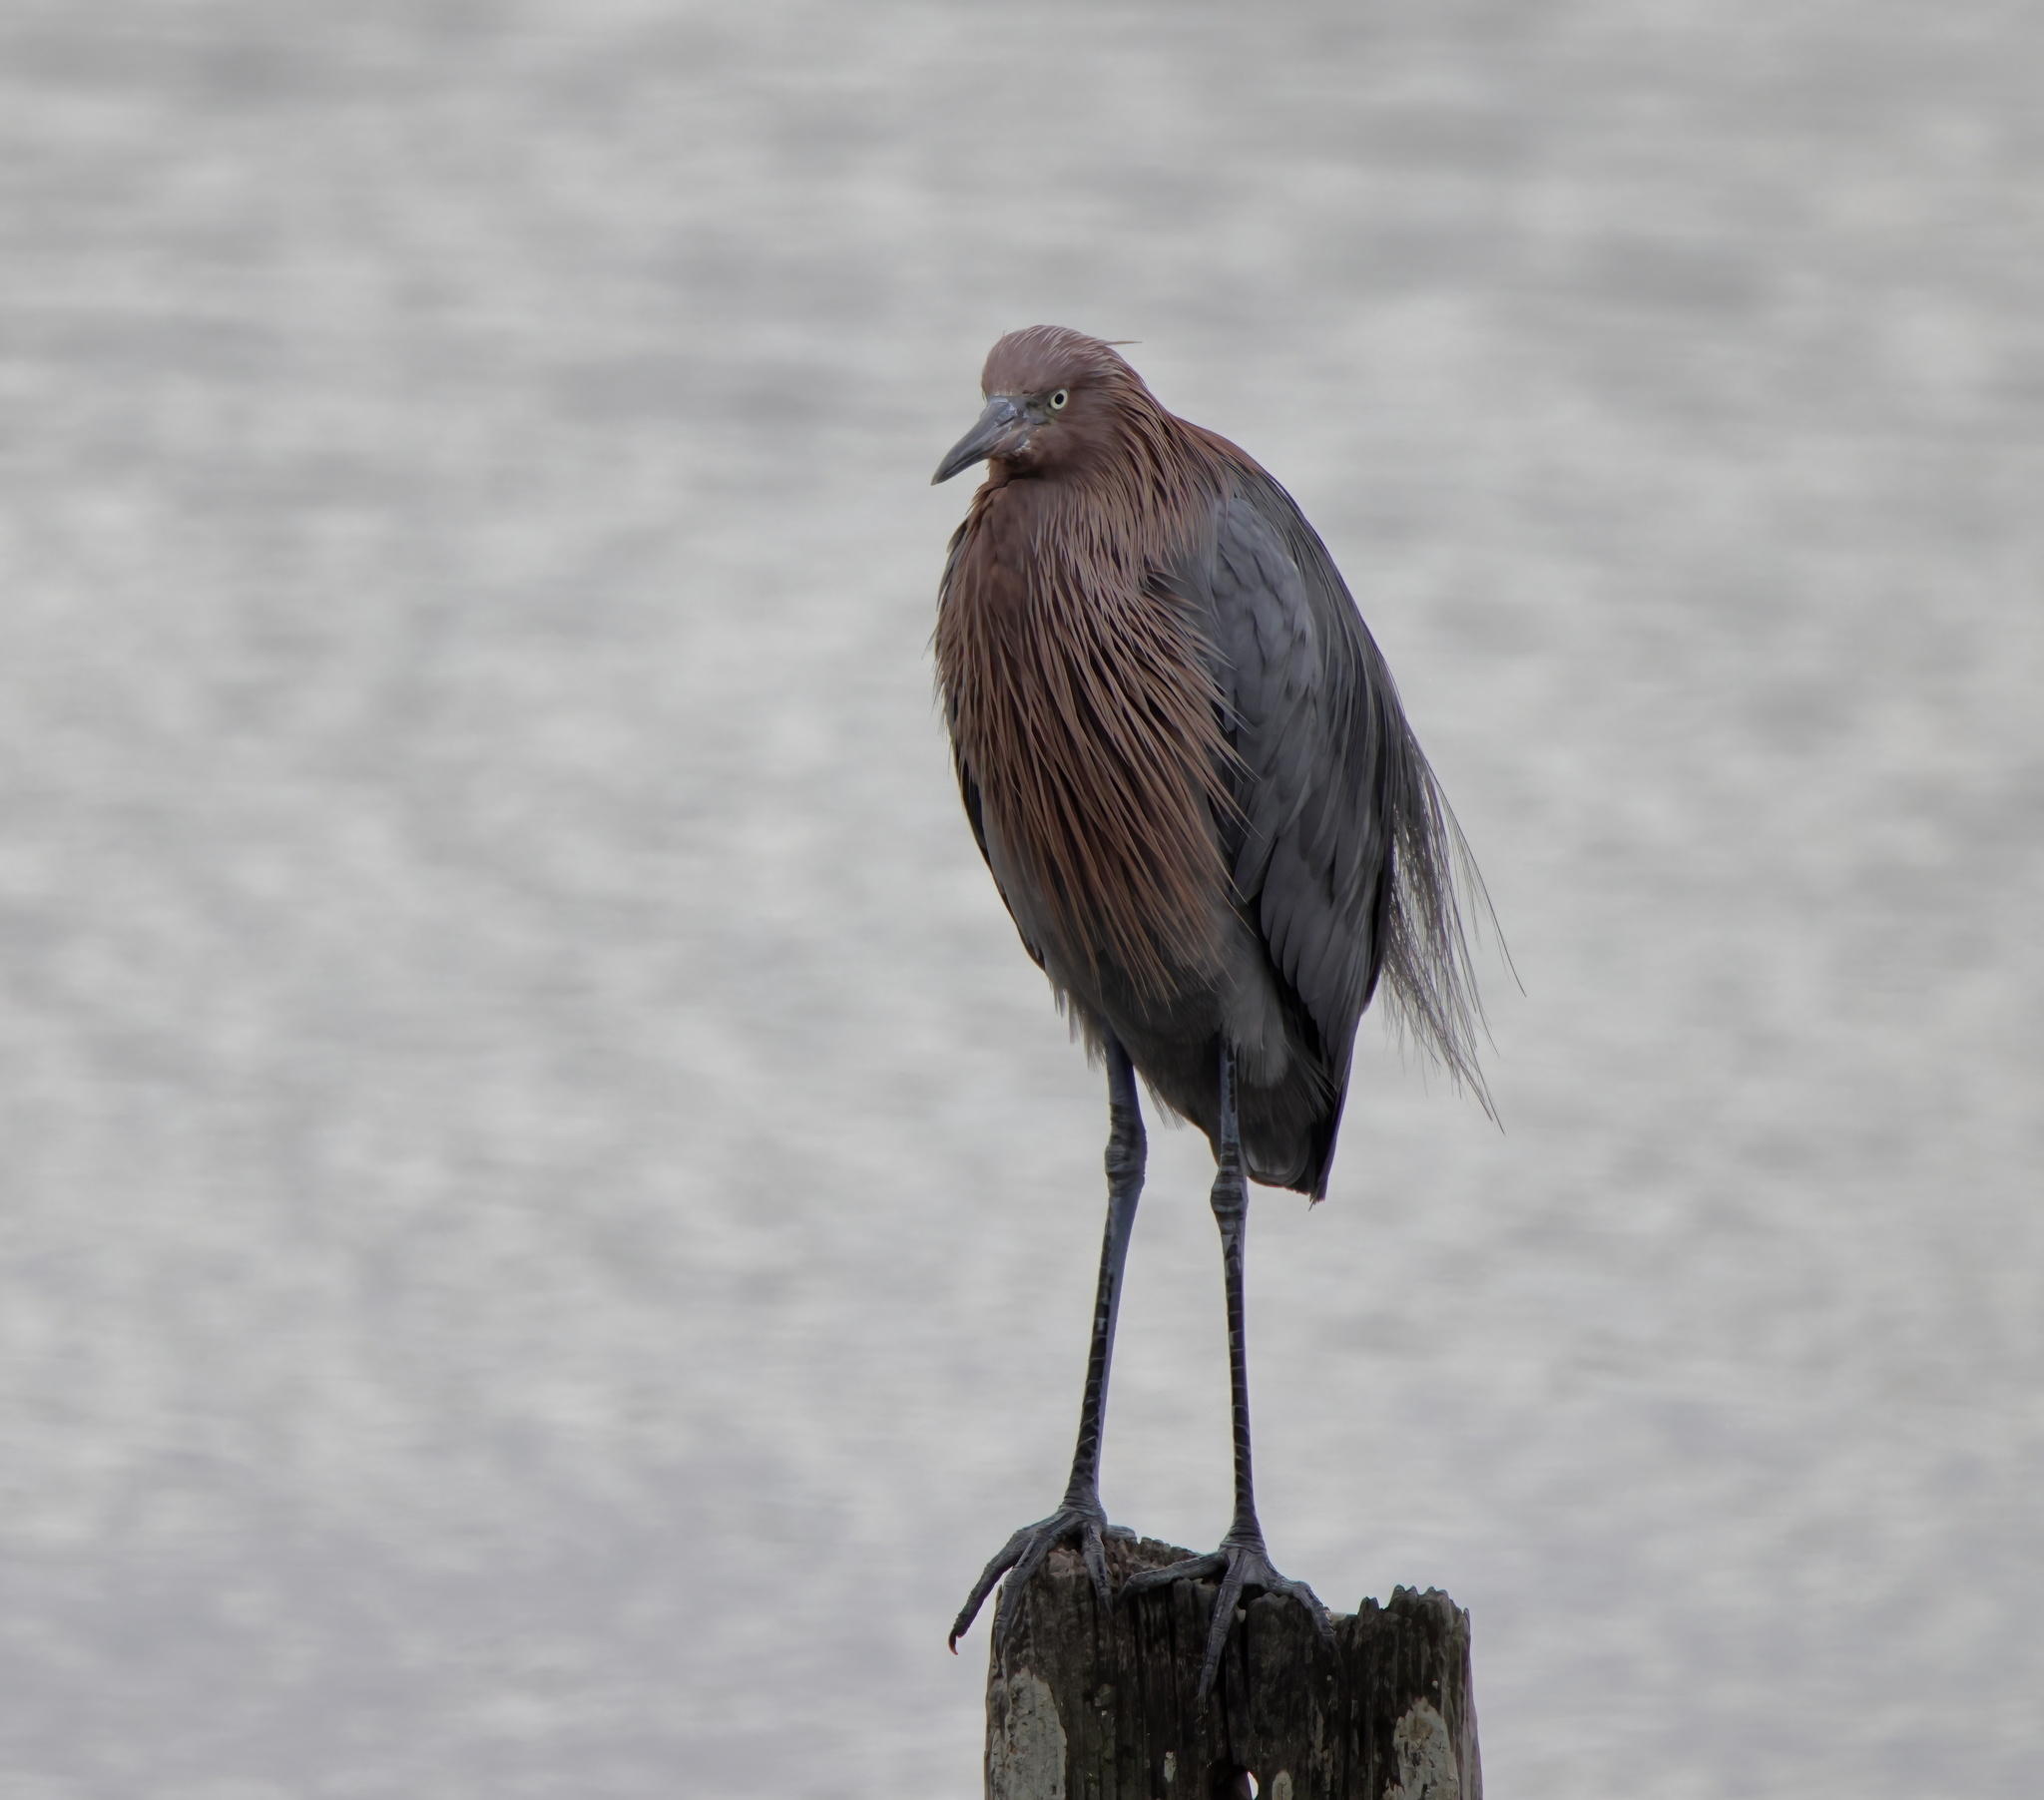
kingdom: Animalia
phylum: Chordata
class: Aves
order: Pelecaniformes
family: Ardeidae
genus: Egretta
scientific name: Egretta rufescens
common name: Reddish egret
